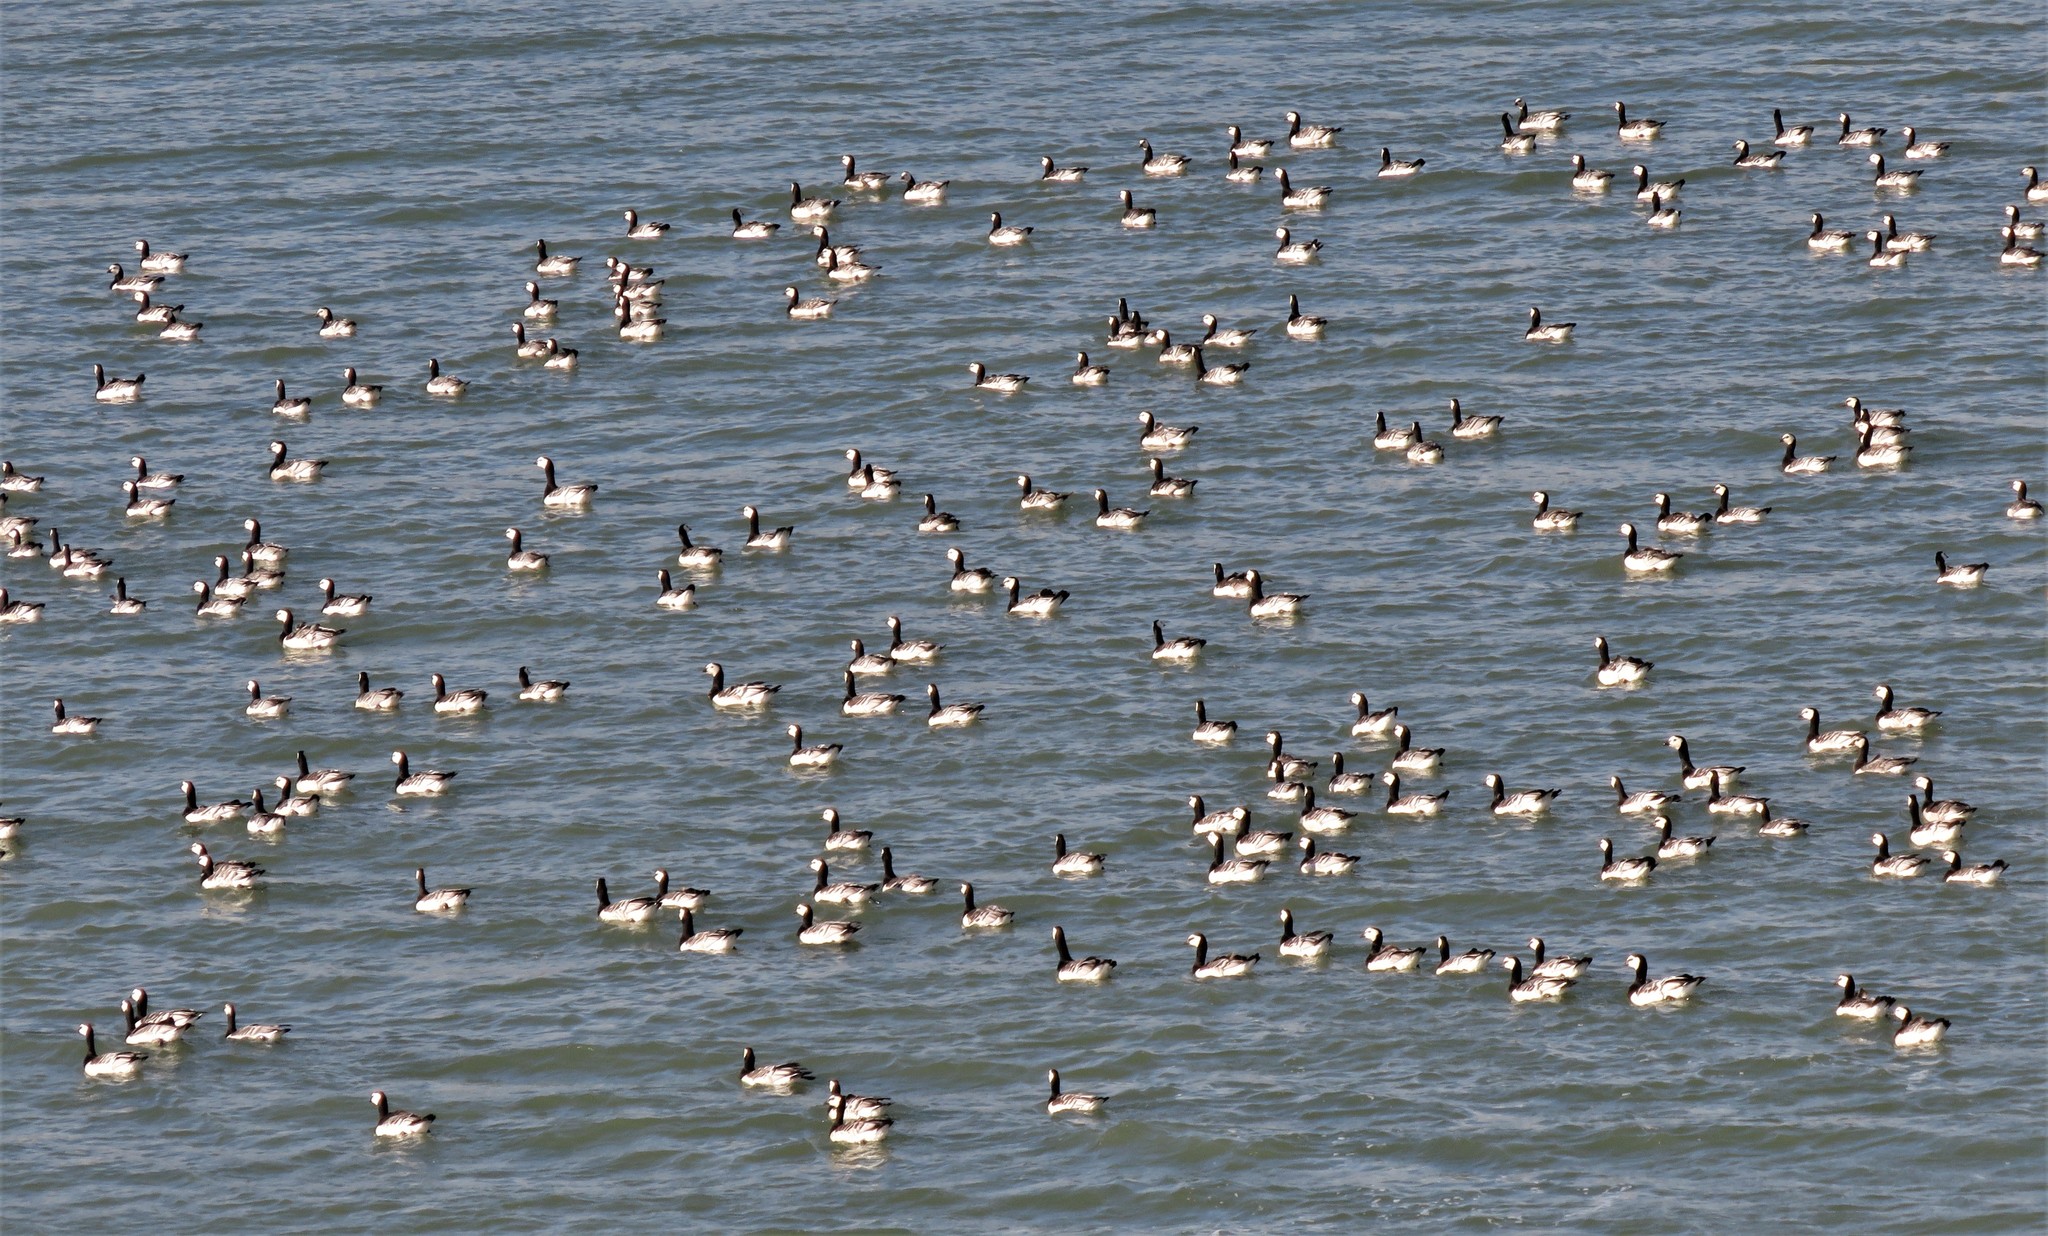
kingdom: Animalia
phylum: Chordata
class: Aves
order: Anseriformes
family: Anatidae
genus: Branta
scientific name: Branta leucopsis
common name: Barnacle goose
